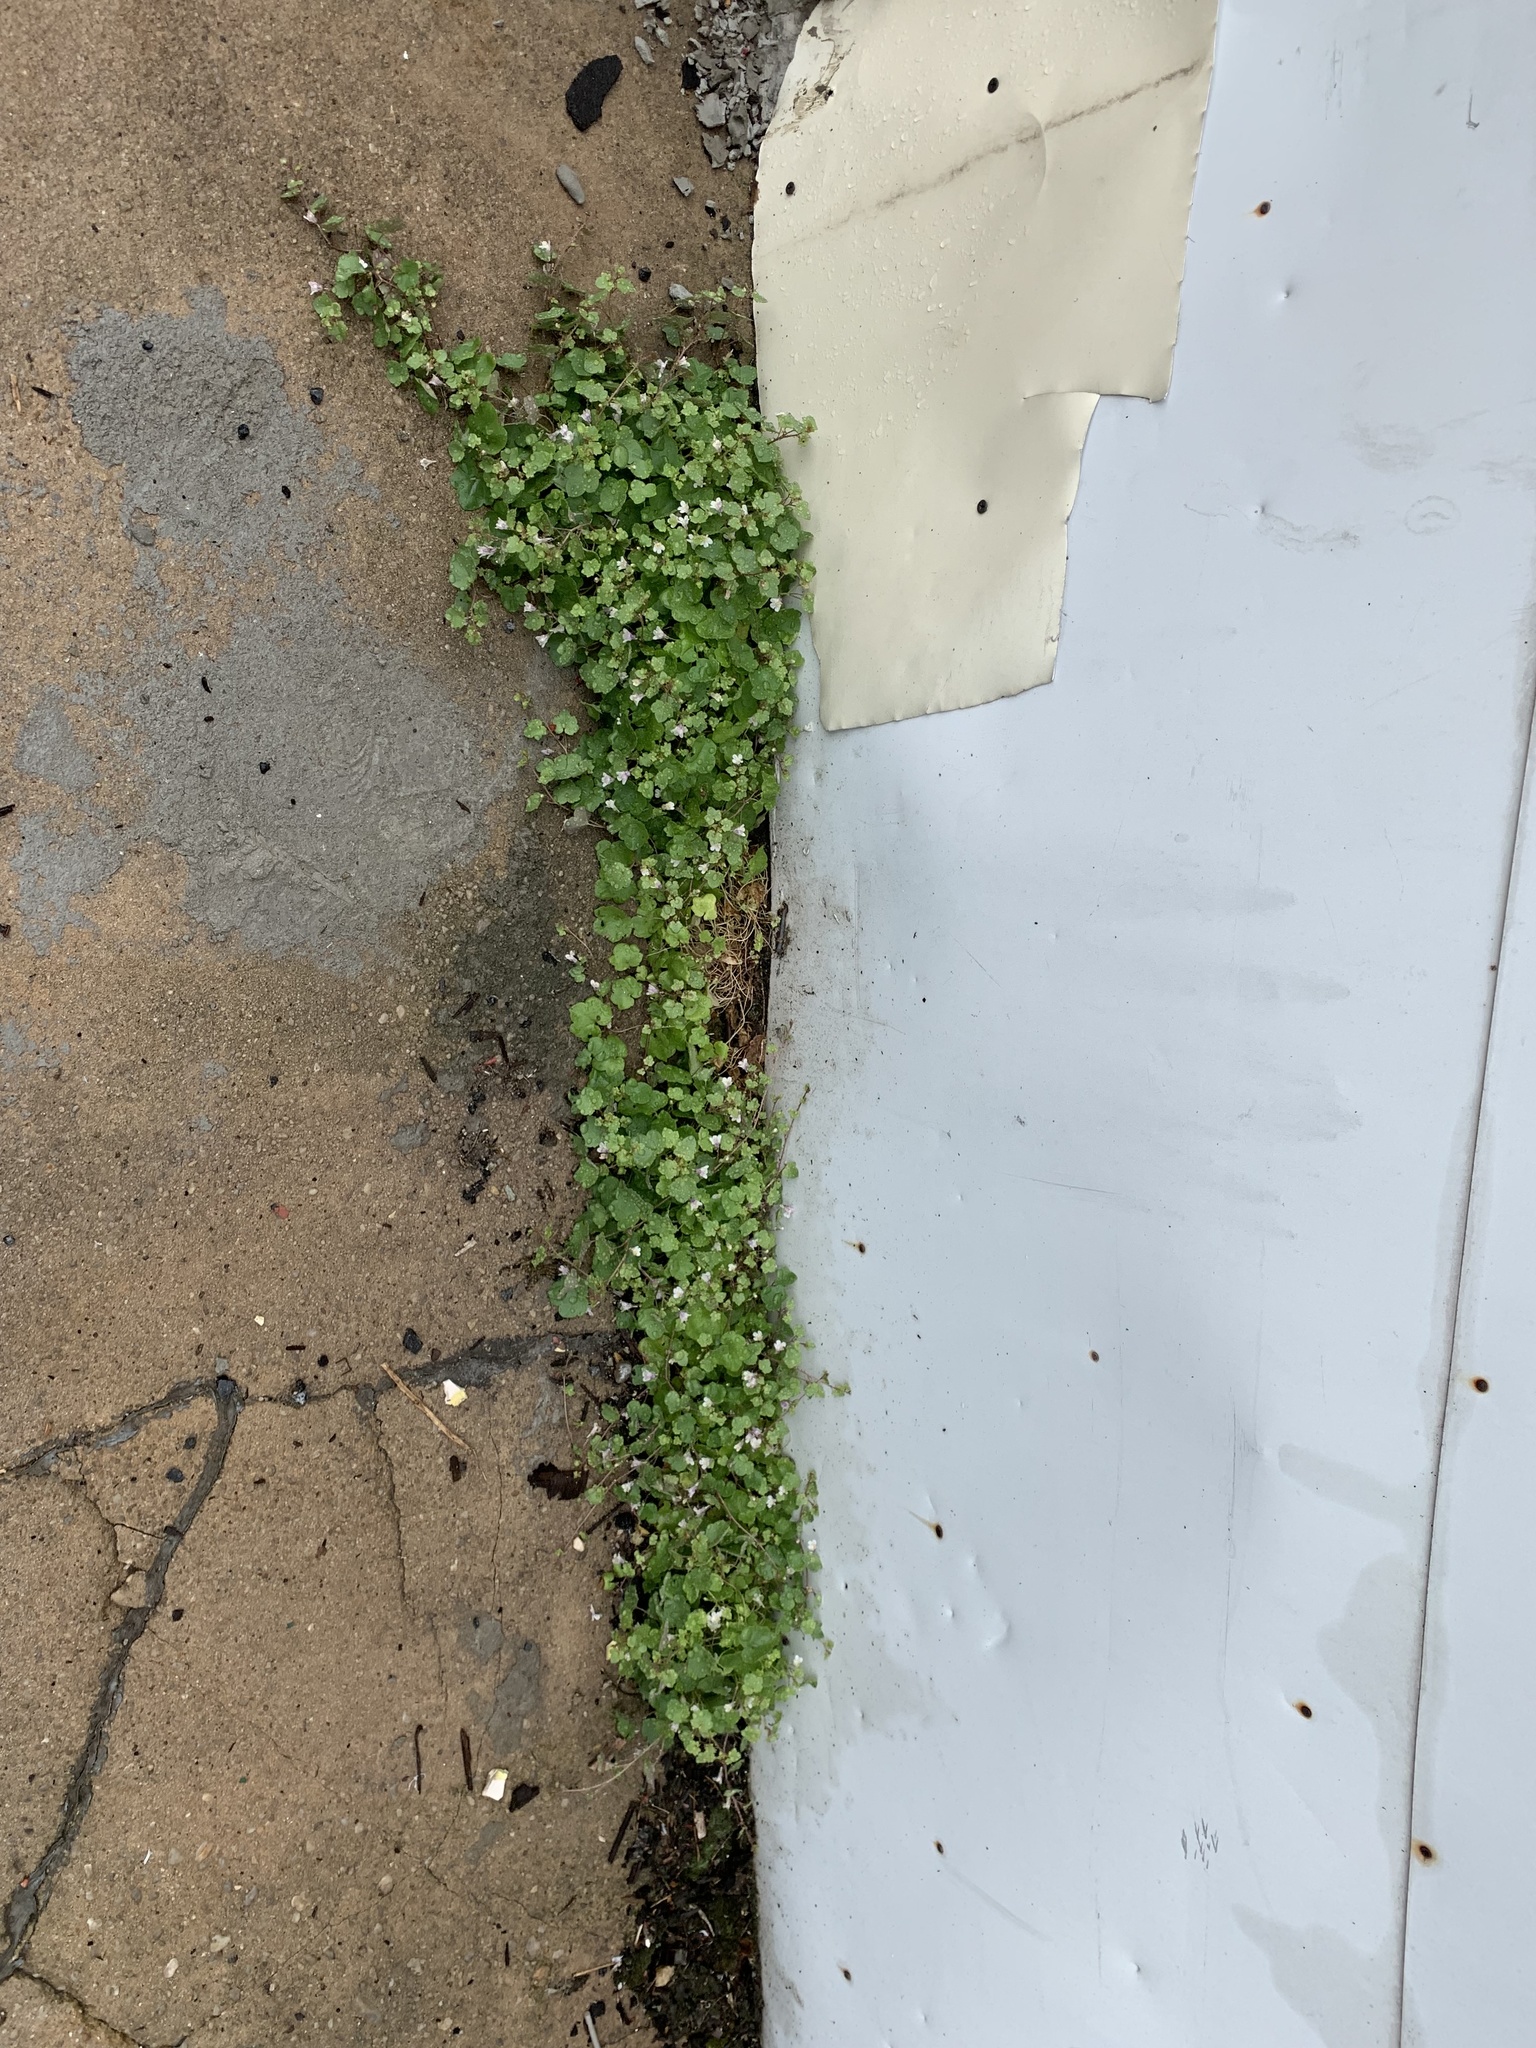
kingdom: Plantae
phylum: Tracheophyta
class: Magnoliopsida
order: Lamiales
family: Plantaginaceae
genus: Cymbalaria
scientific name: Cymbalaria muralis
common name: Ivy-leaved toadflax
